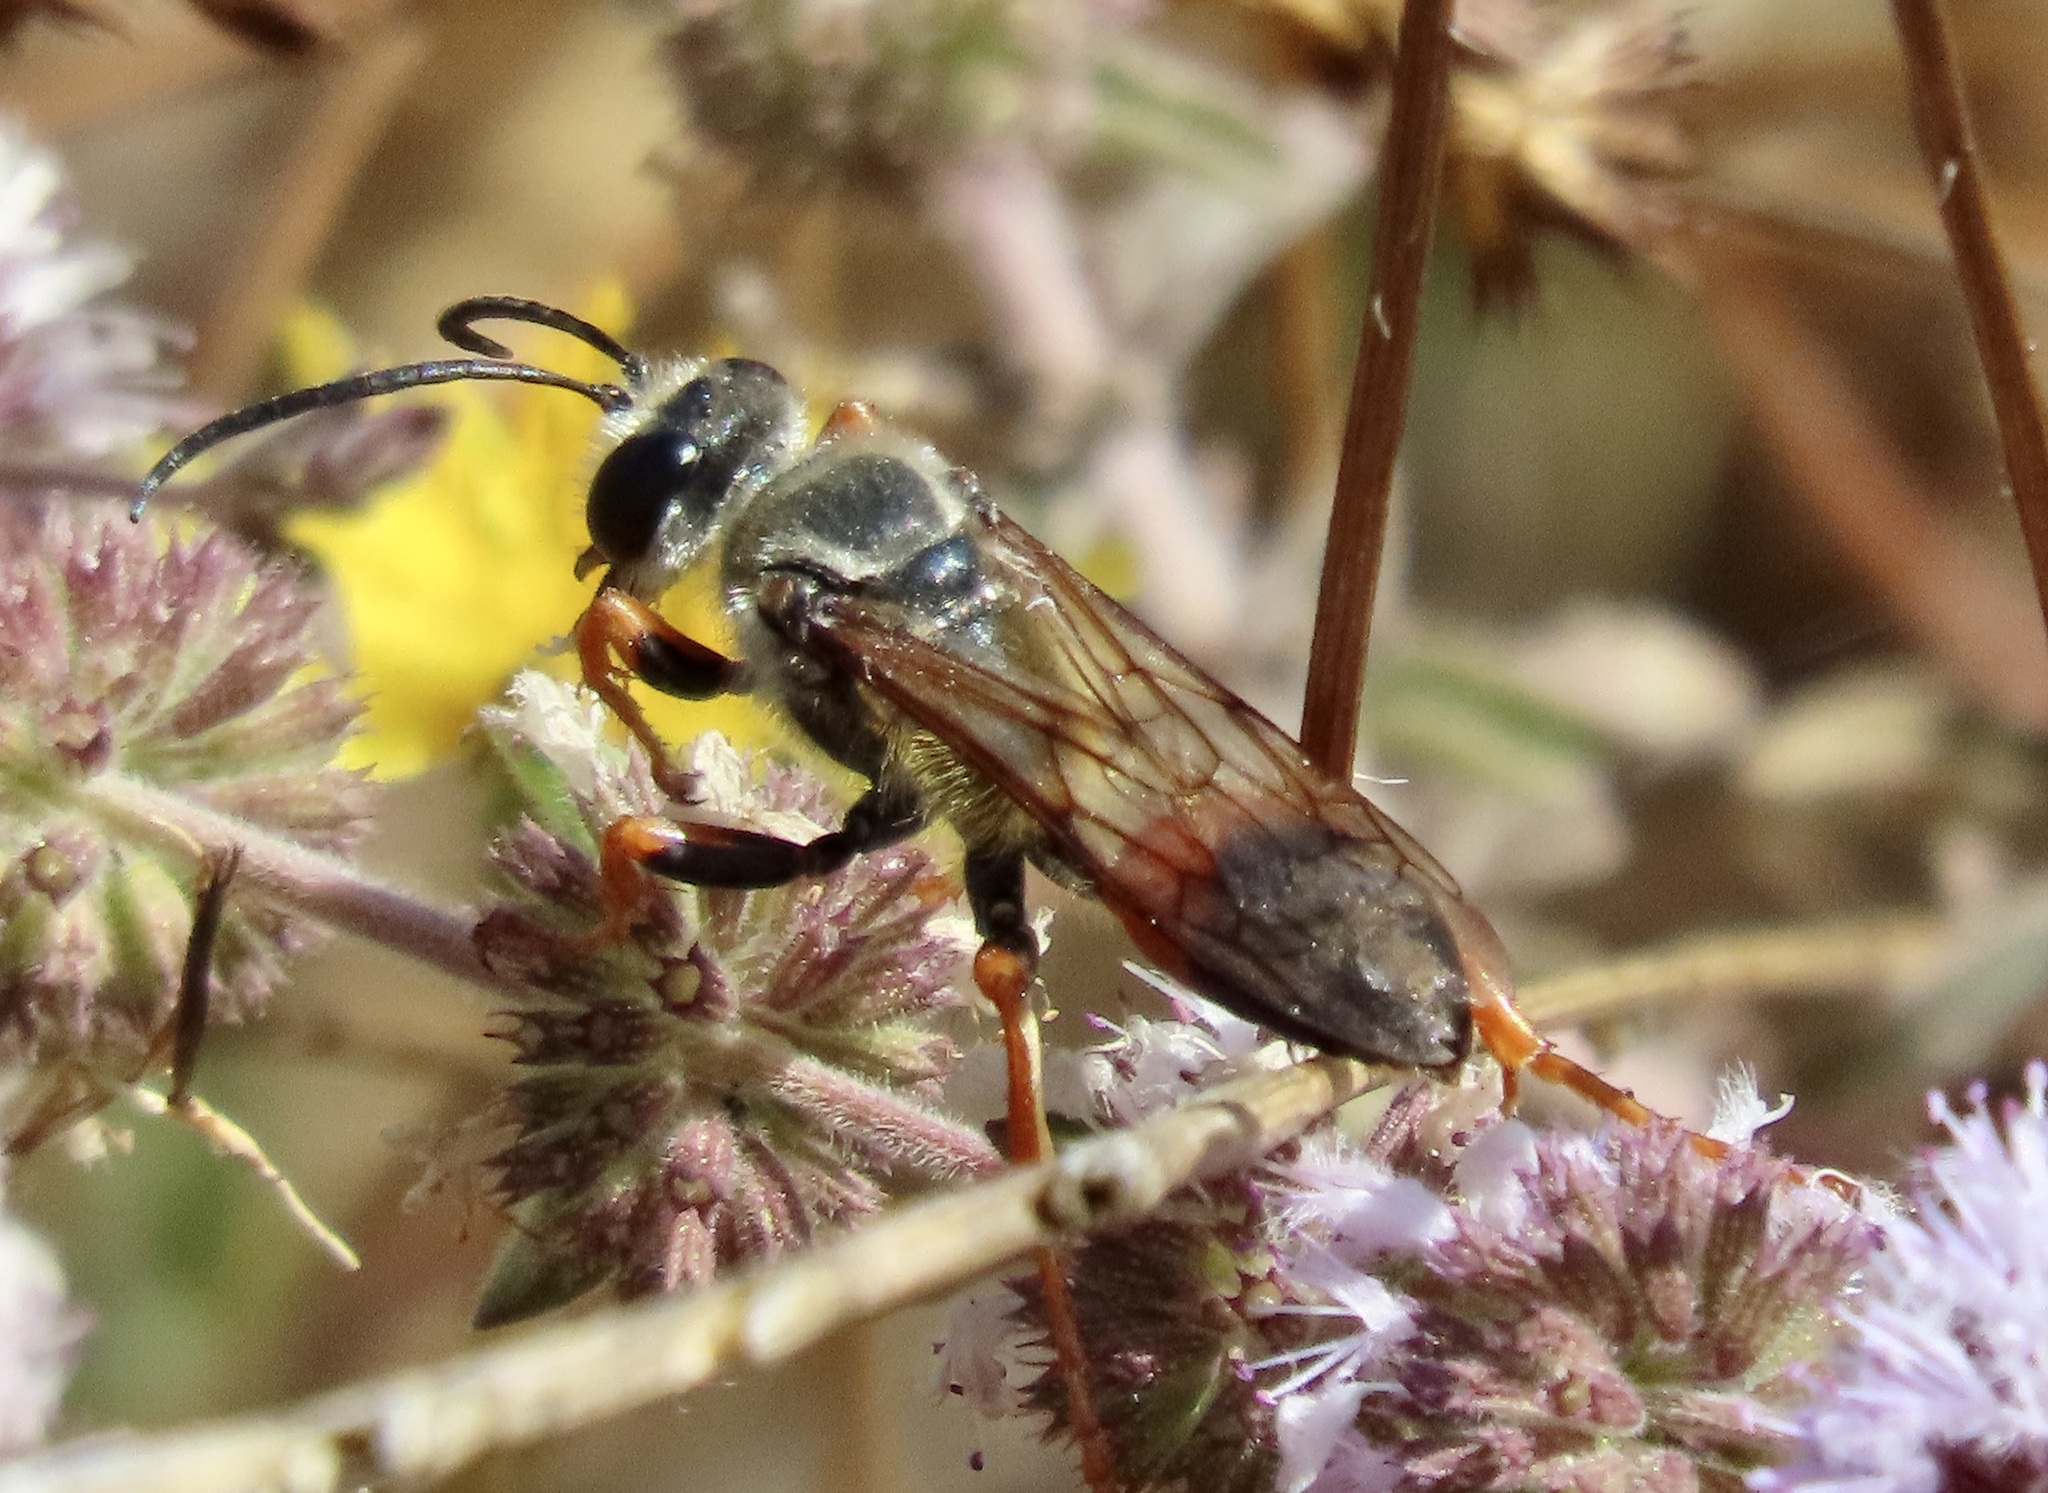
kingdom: Animalia
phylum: Arthropoda
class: Insecta
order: Hymenoptera
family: Sphecidae
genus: Sphex
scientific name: Sphex ichneumoneus
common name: Great golden digger wasp
